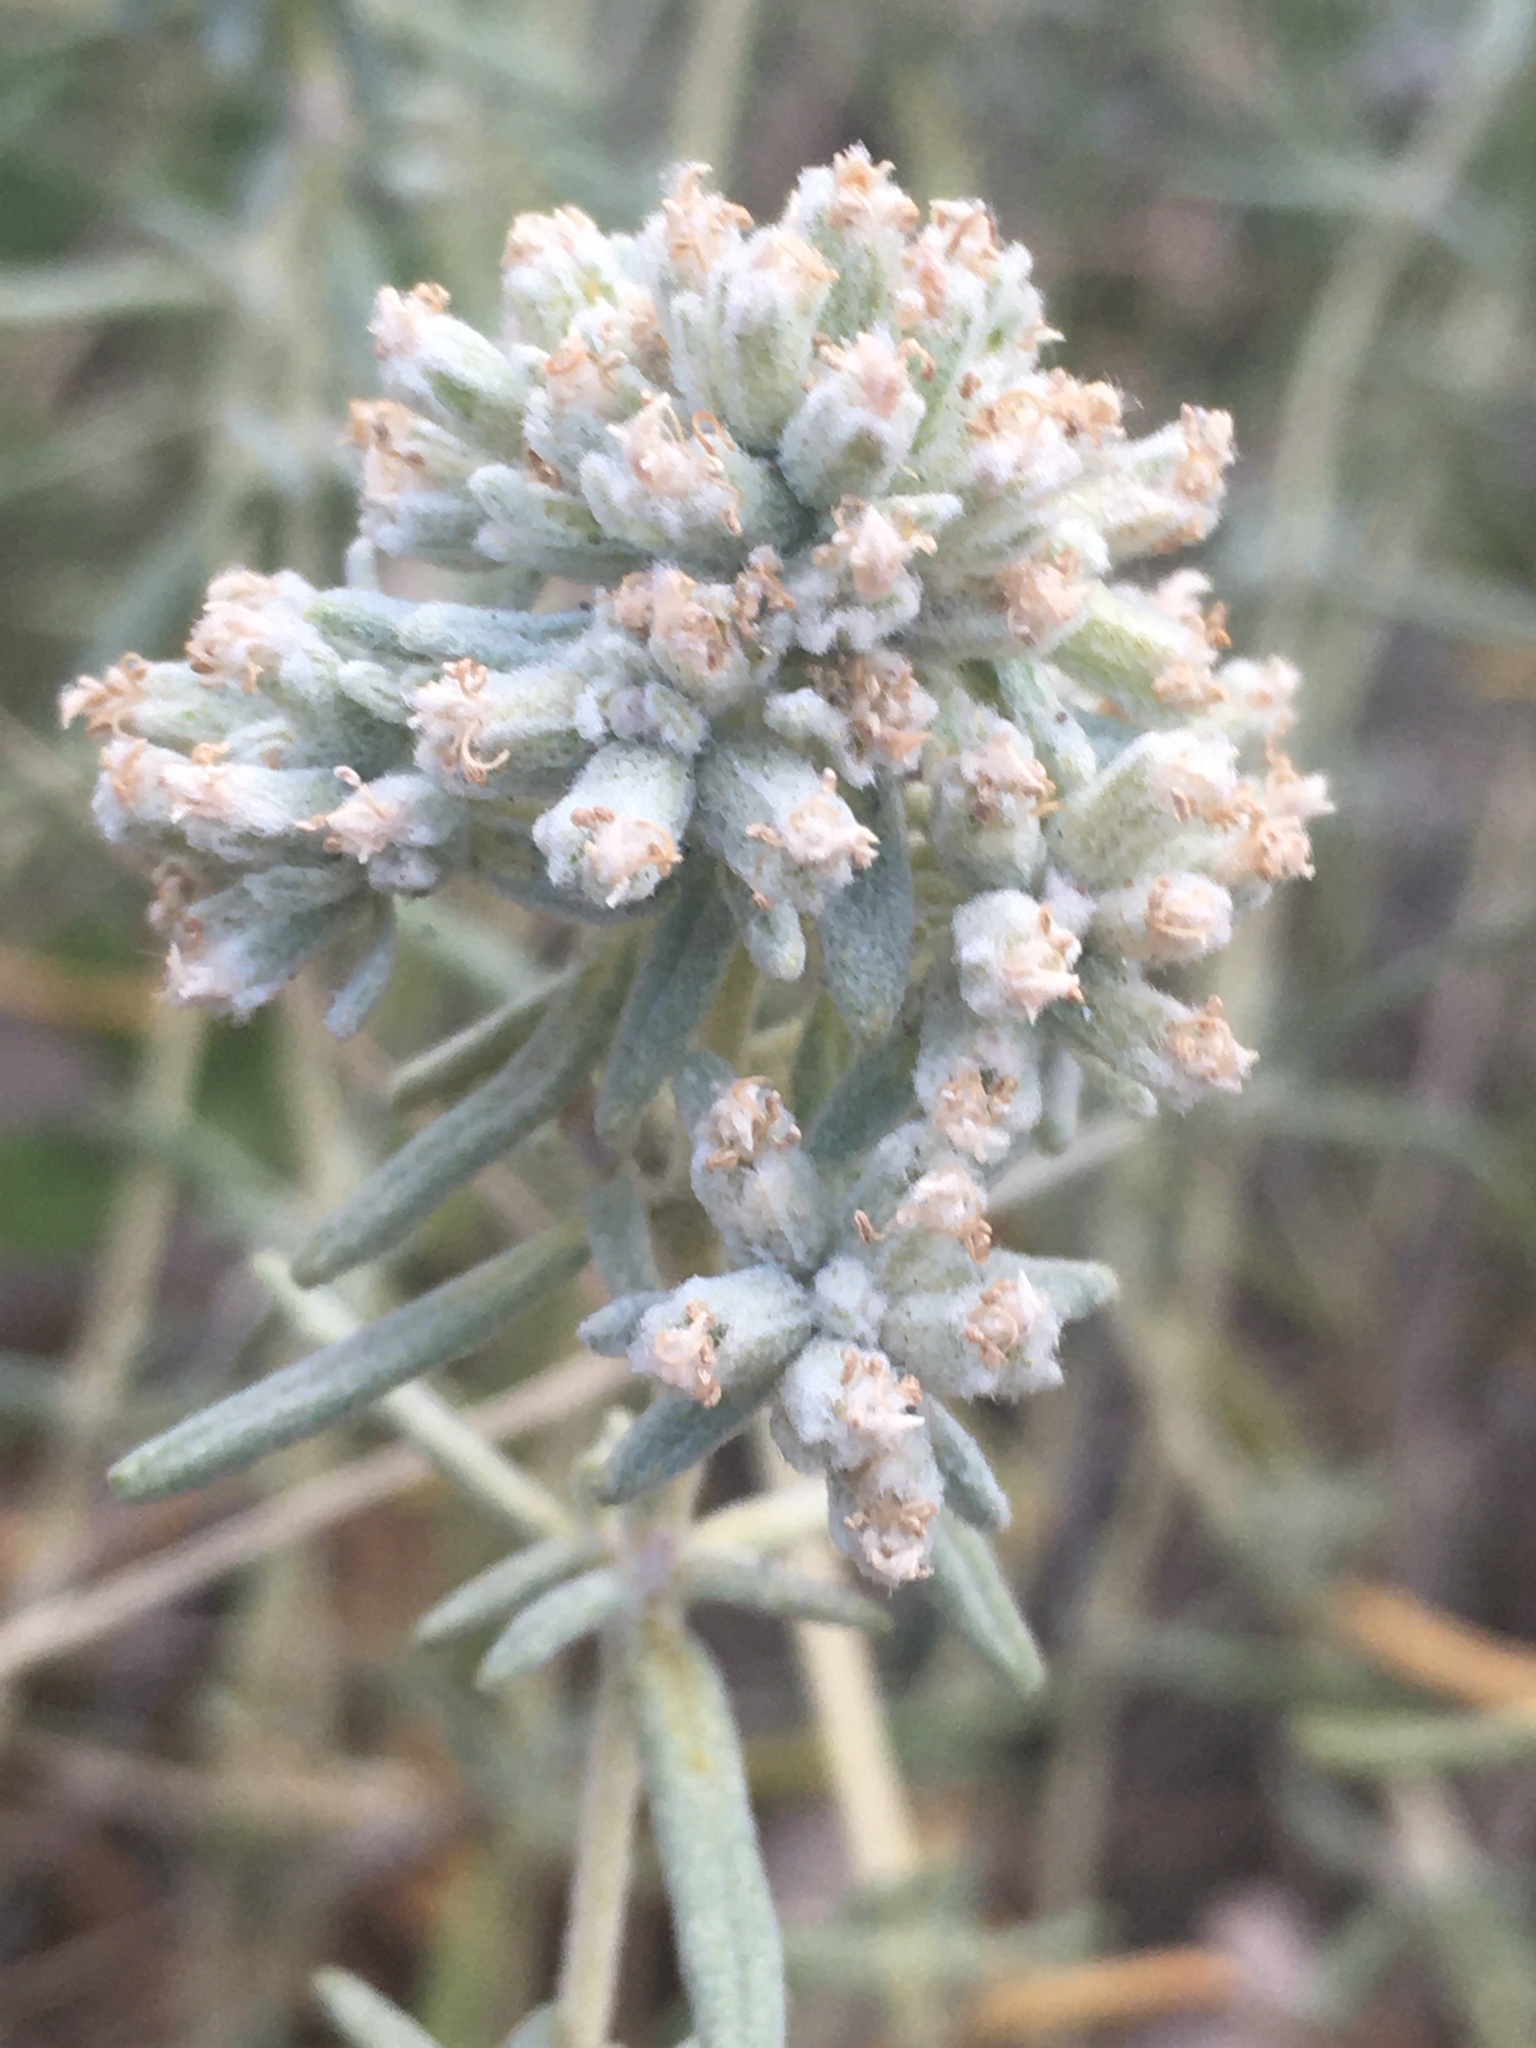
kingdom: Plantae
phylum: Tracheophyta
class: Magnoliopsida
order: Lamiales
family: Lamiaceae
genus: Teucrium
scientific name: Teucrium polium
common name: Poley
